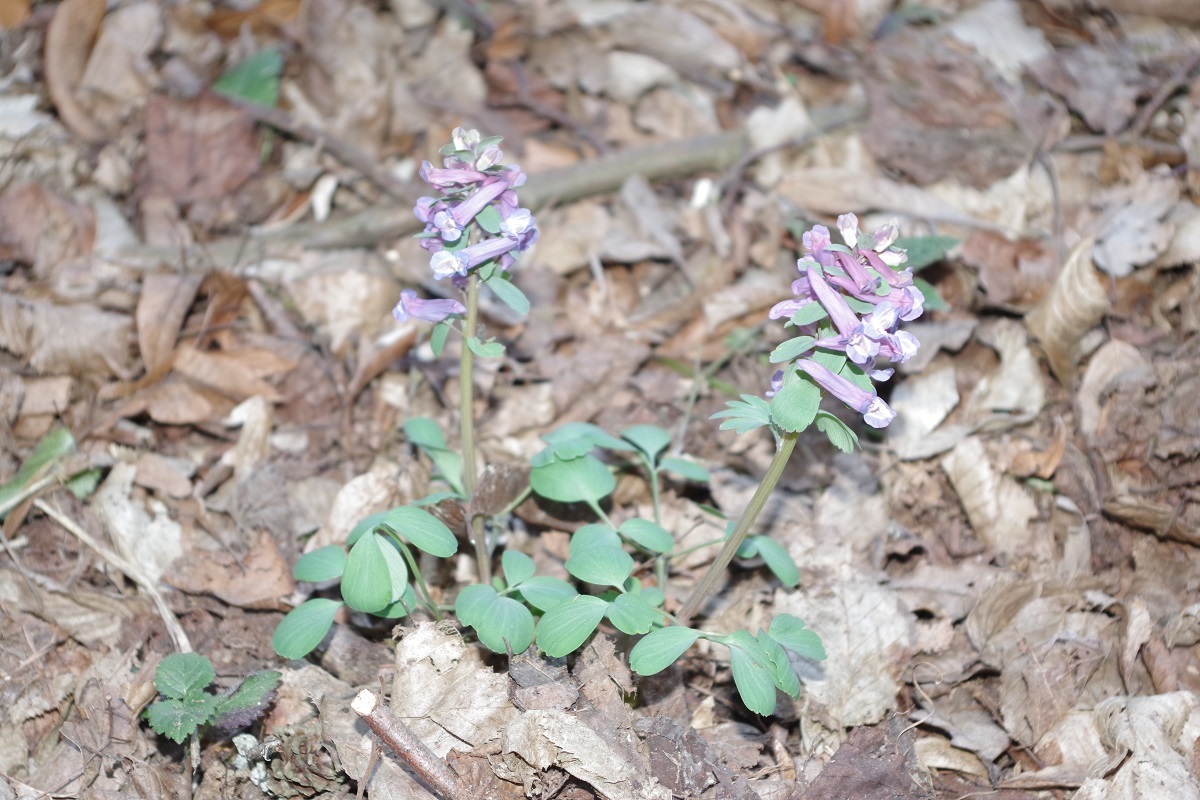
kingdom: Plantae
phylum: Tracheophyta
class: Magnoliopsida
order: Ranunculales
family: Papaveraceae
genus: Corydalis
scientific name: Corydalis solida
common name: Bird-in-a-bush
